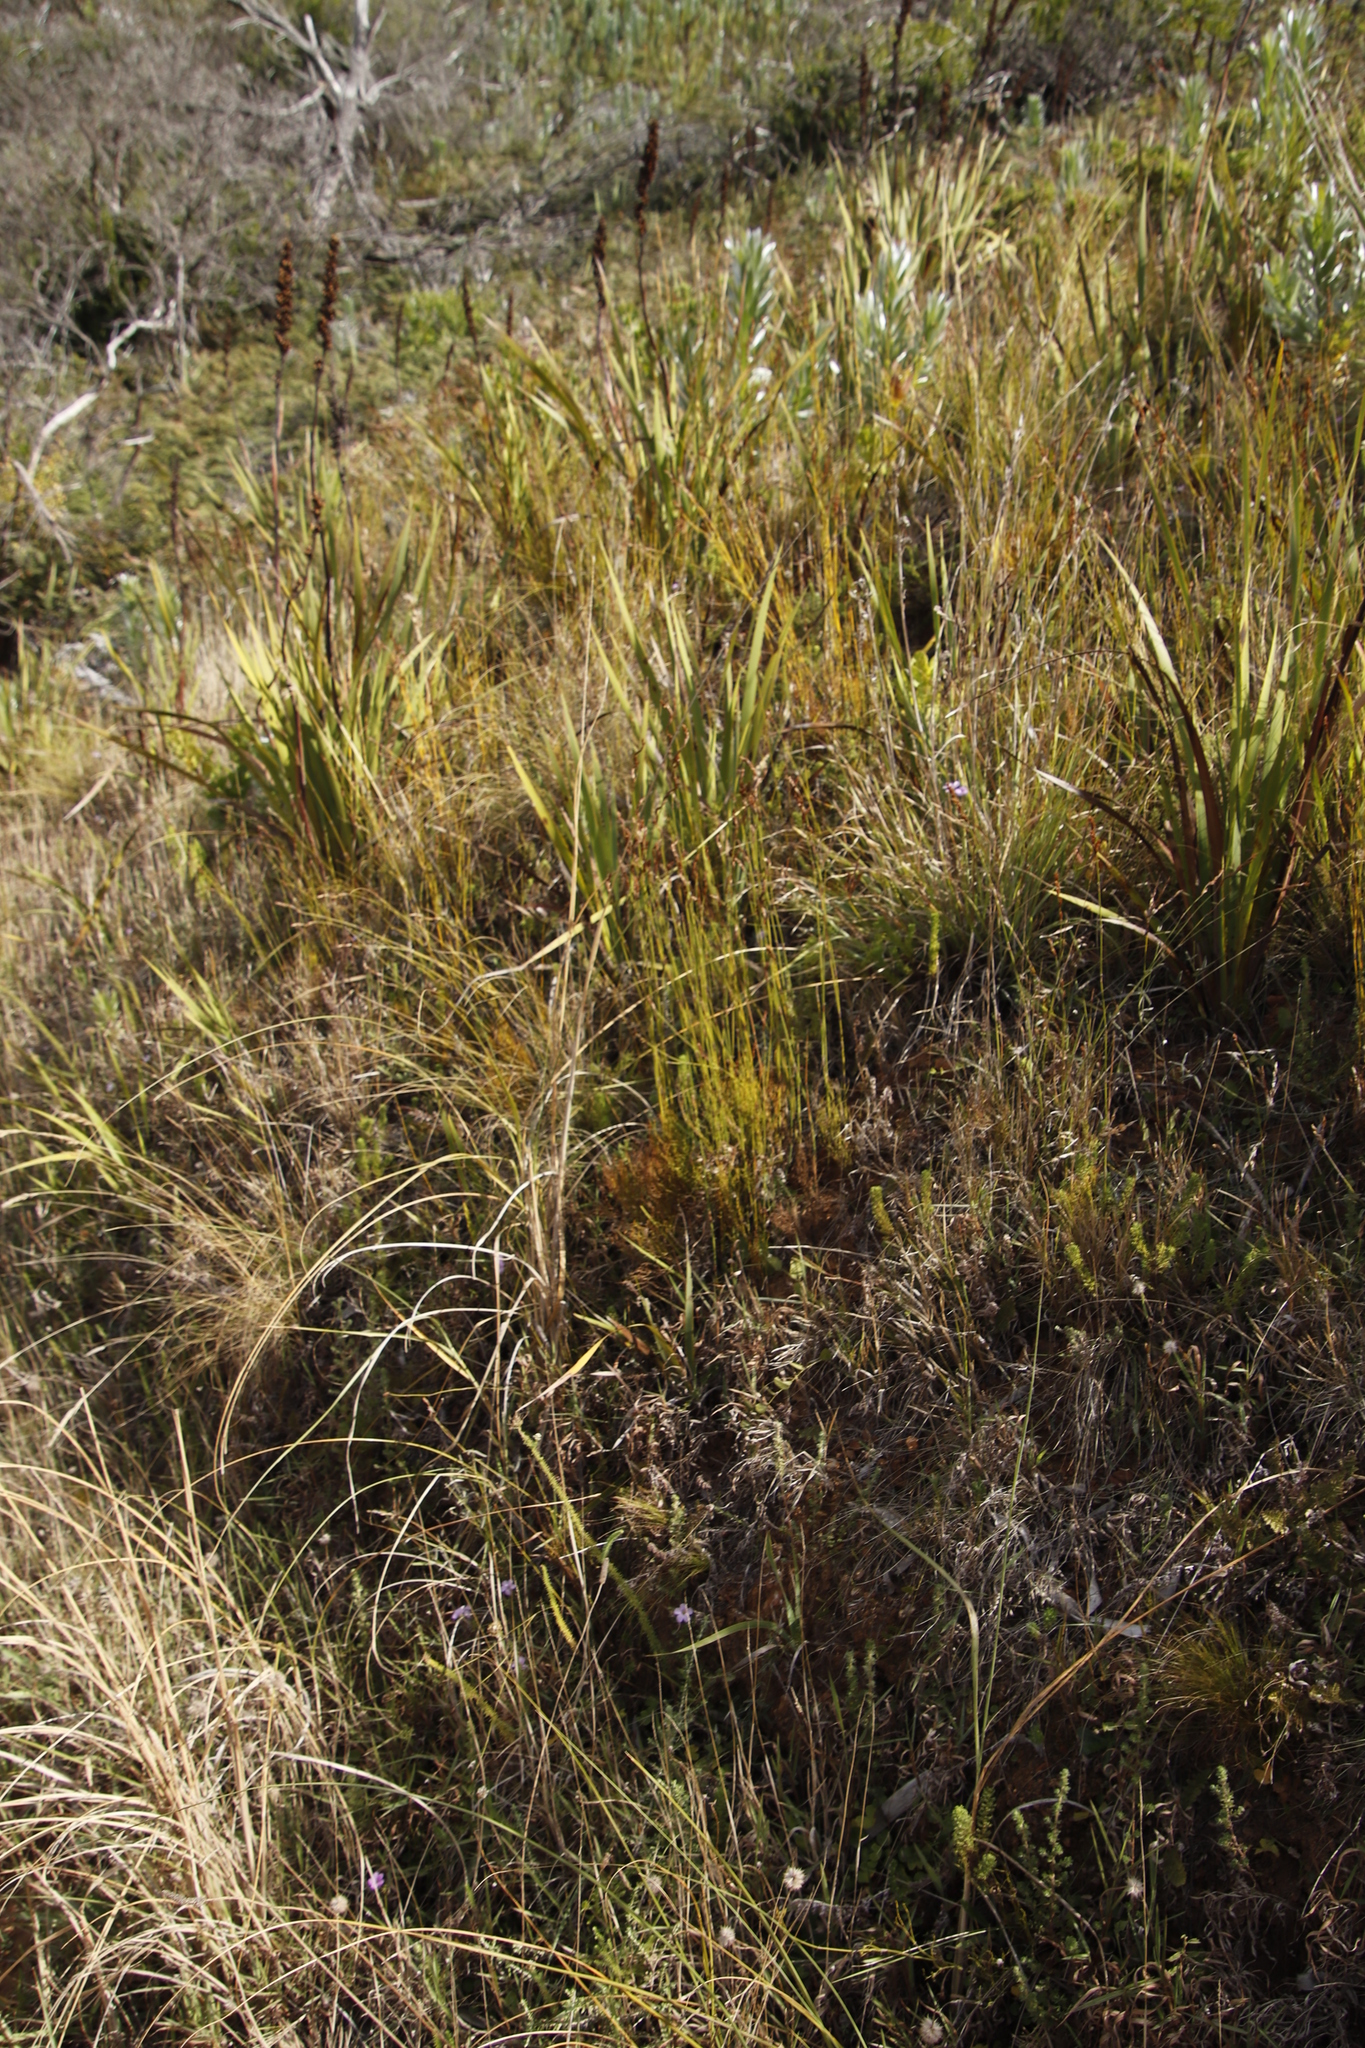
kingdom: Plantae
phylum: Tracheophyta
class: Liliopsida
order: Asparagales
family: Iridaceae
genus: Aristea
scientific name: Aristea capitata
